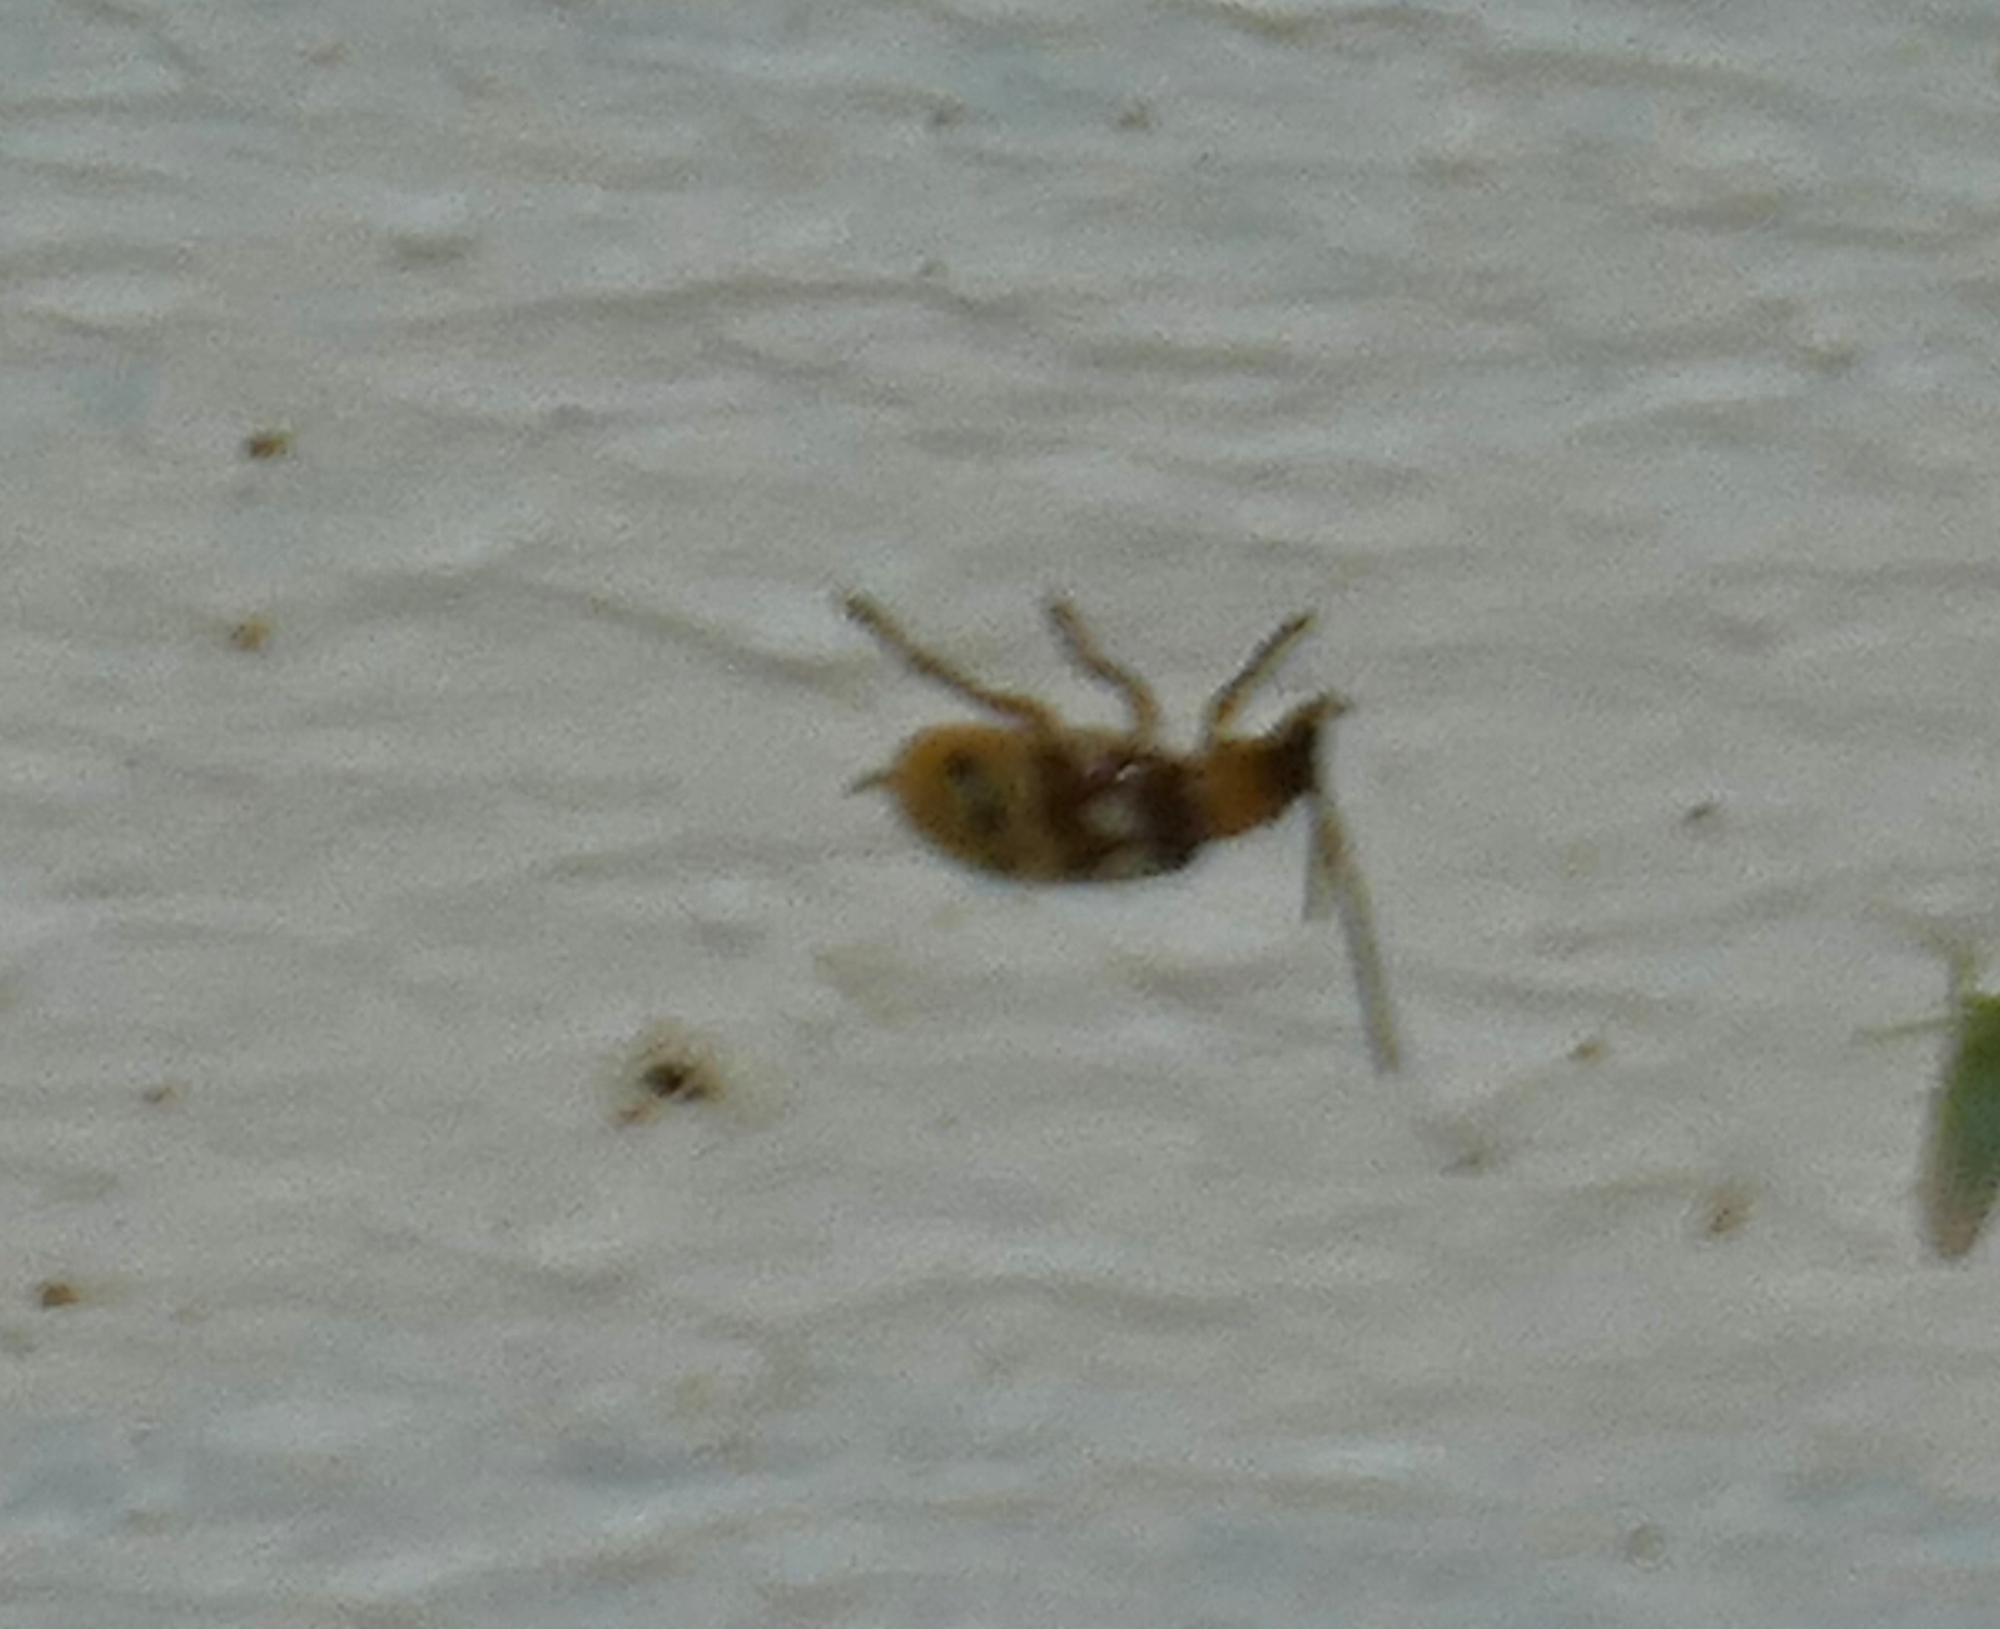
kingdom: Animalia
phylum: Arthropoda
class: Insecta
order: Coleoptera
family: Chrysomelidae
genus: Paranapiacaba
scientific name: Paranapiacaba connexa
